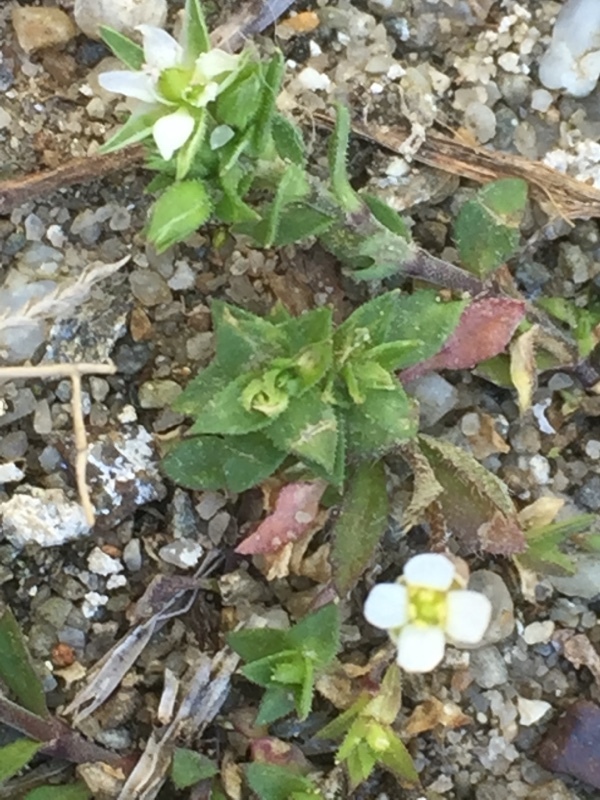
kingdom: Plantae
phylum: Tracheophyta
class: Magnoliopsida
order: Caryophyllales
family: Caryophyllaceae
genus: Arenaria
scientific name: Arenaria serpyllifolia
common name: Thyme-leaved sandwort
